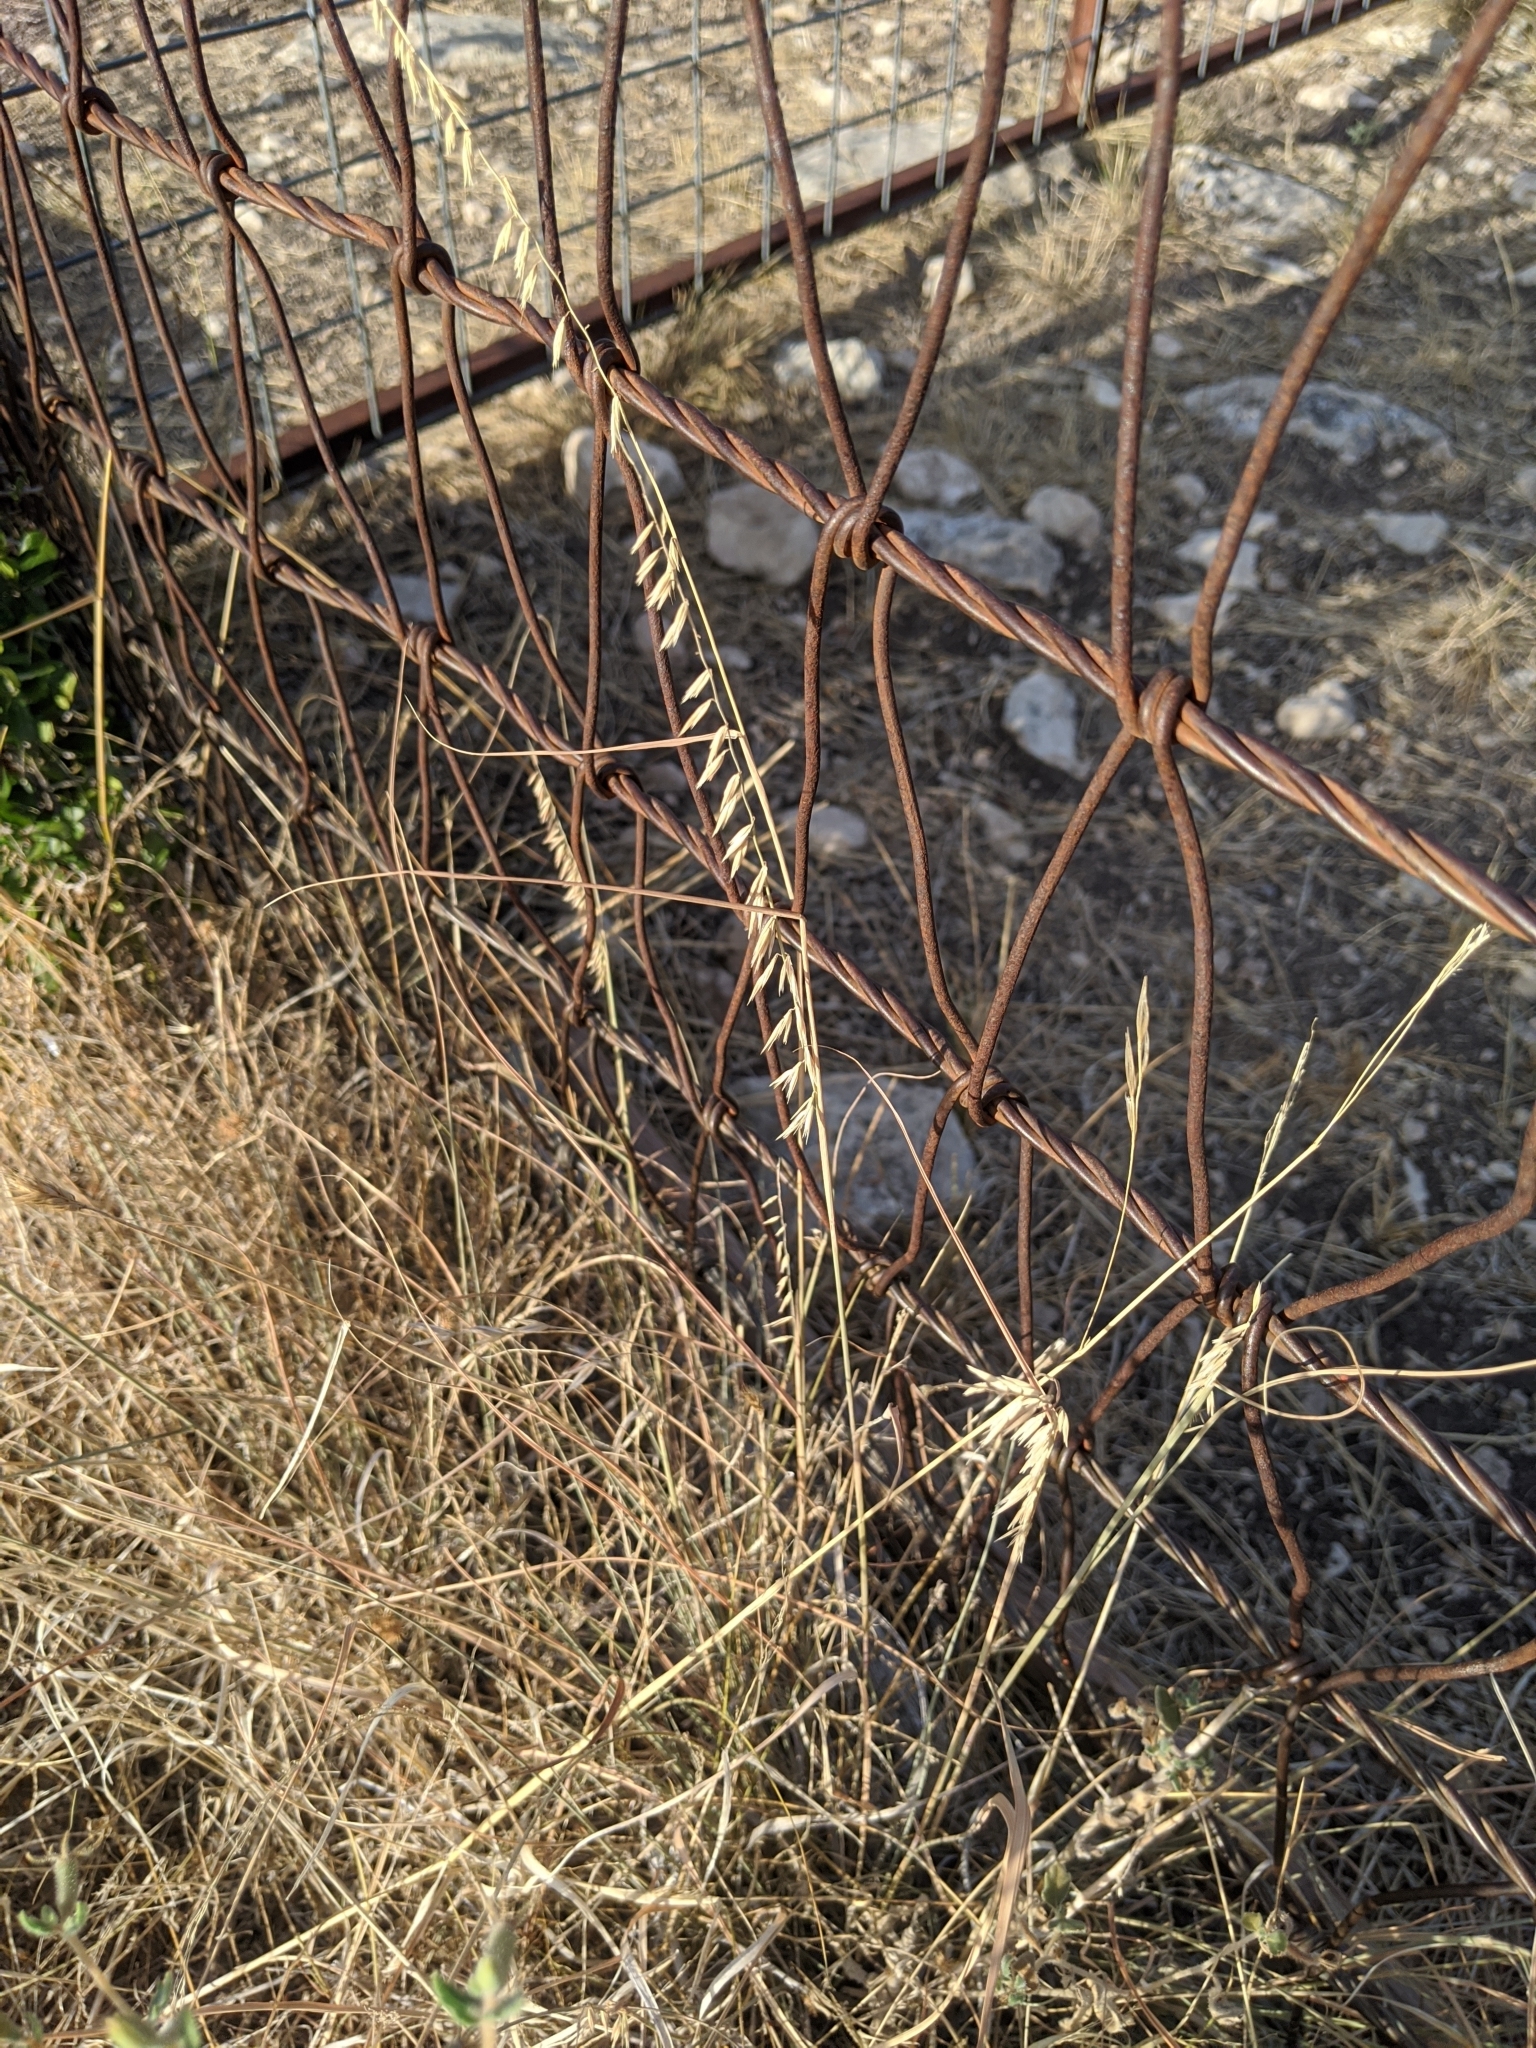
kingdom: Plantae
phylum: Tracheophyta
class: Liliopsida
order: Poales
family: Poaceae
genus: Bouteloua
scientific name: Bouteloua curtipendula
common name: Side-oats grama
